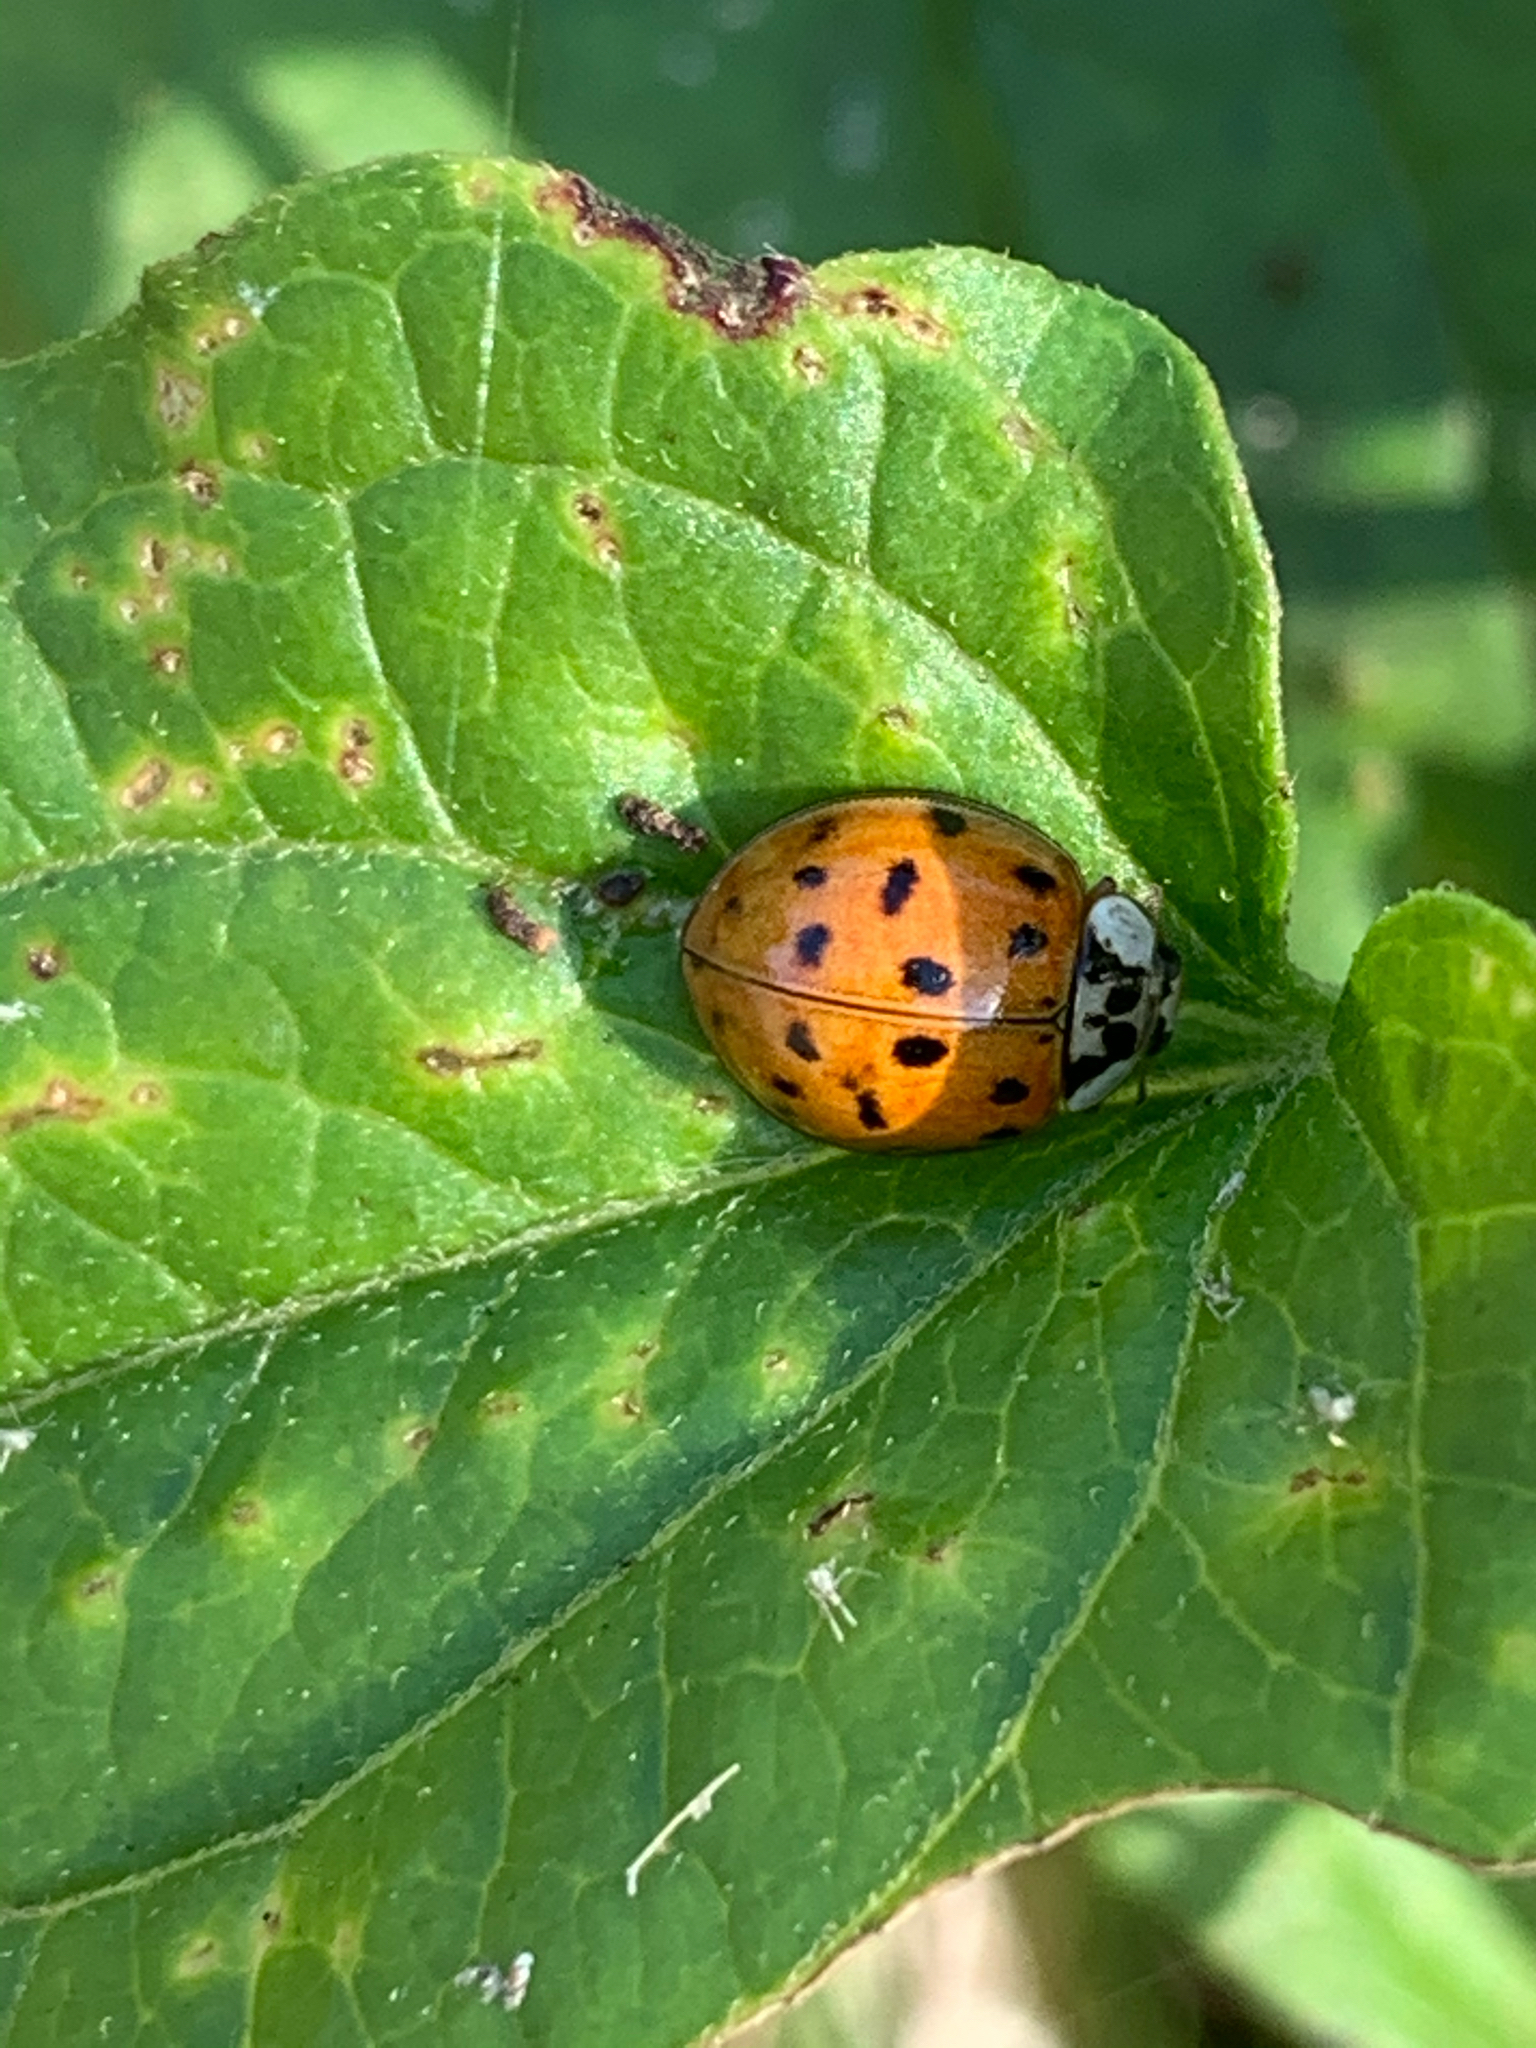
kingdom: Animalia
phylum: Arthropoda
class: Insecta
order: Coleoptera
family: Coccinellidae
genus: Harmonia
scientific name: Harmonia axyridis
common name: Harlequin ladybird
